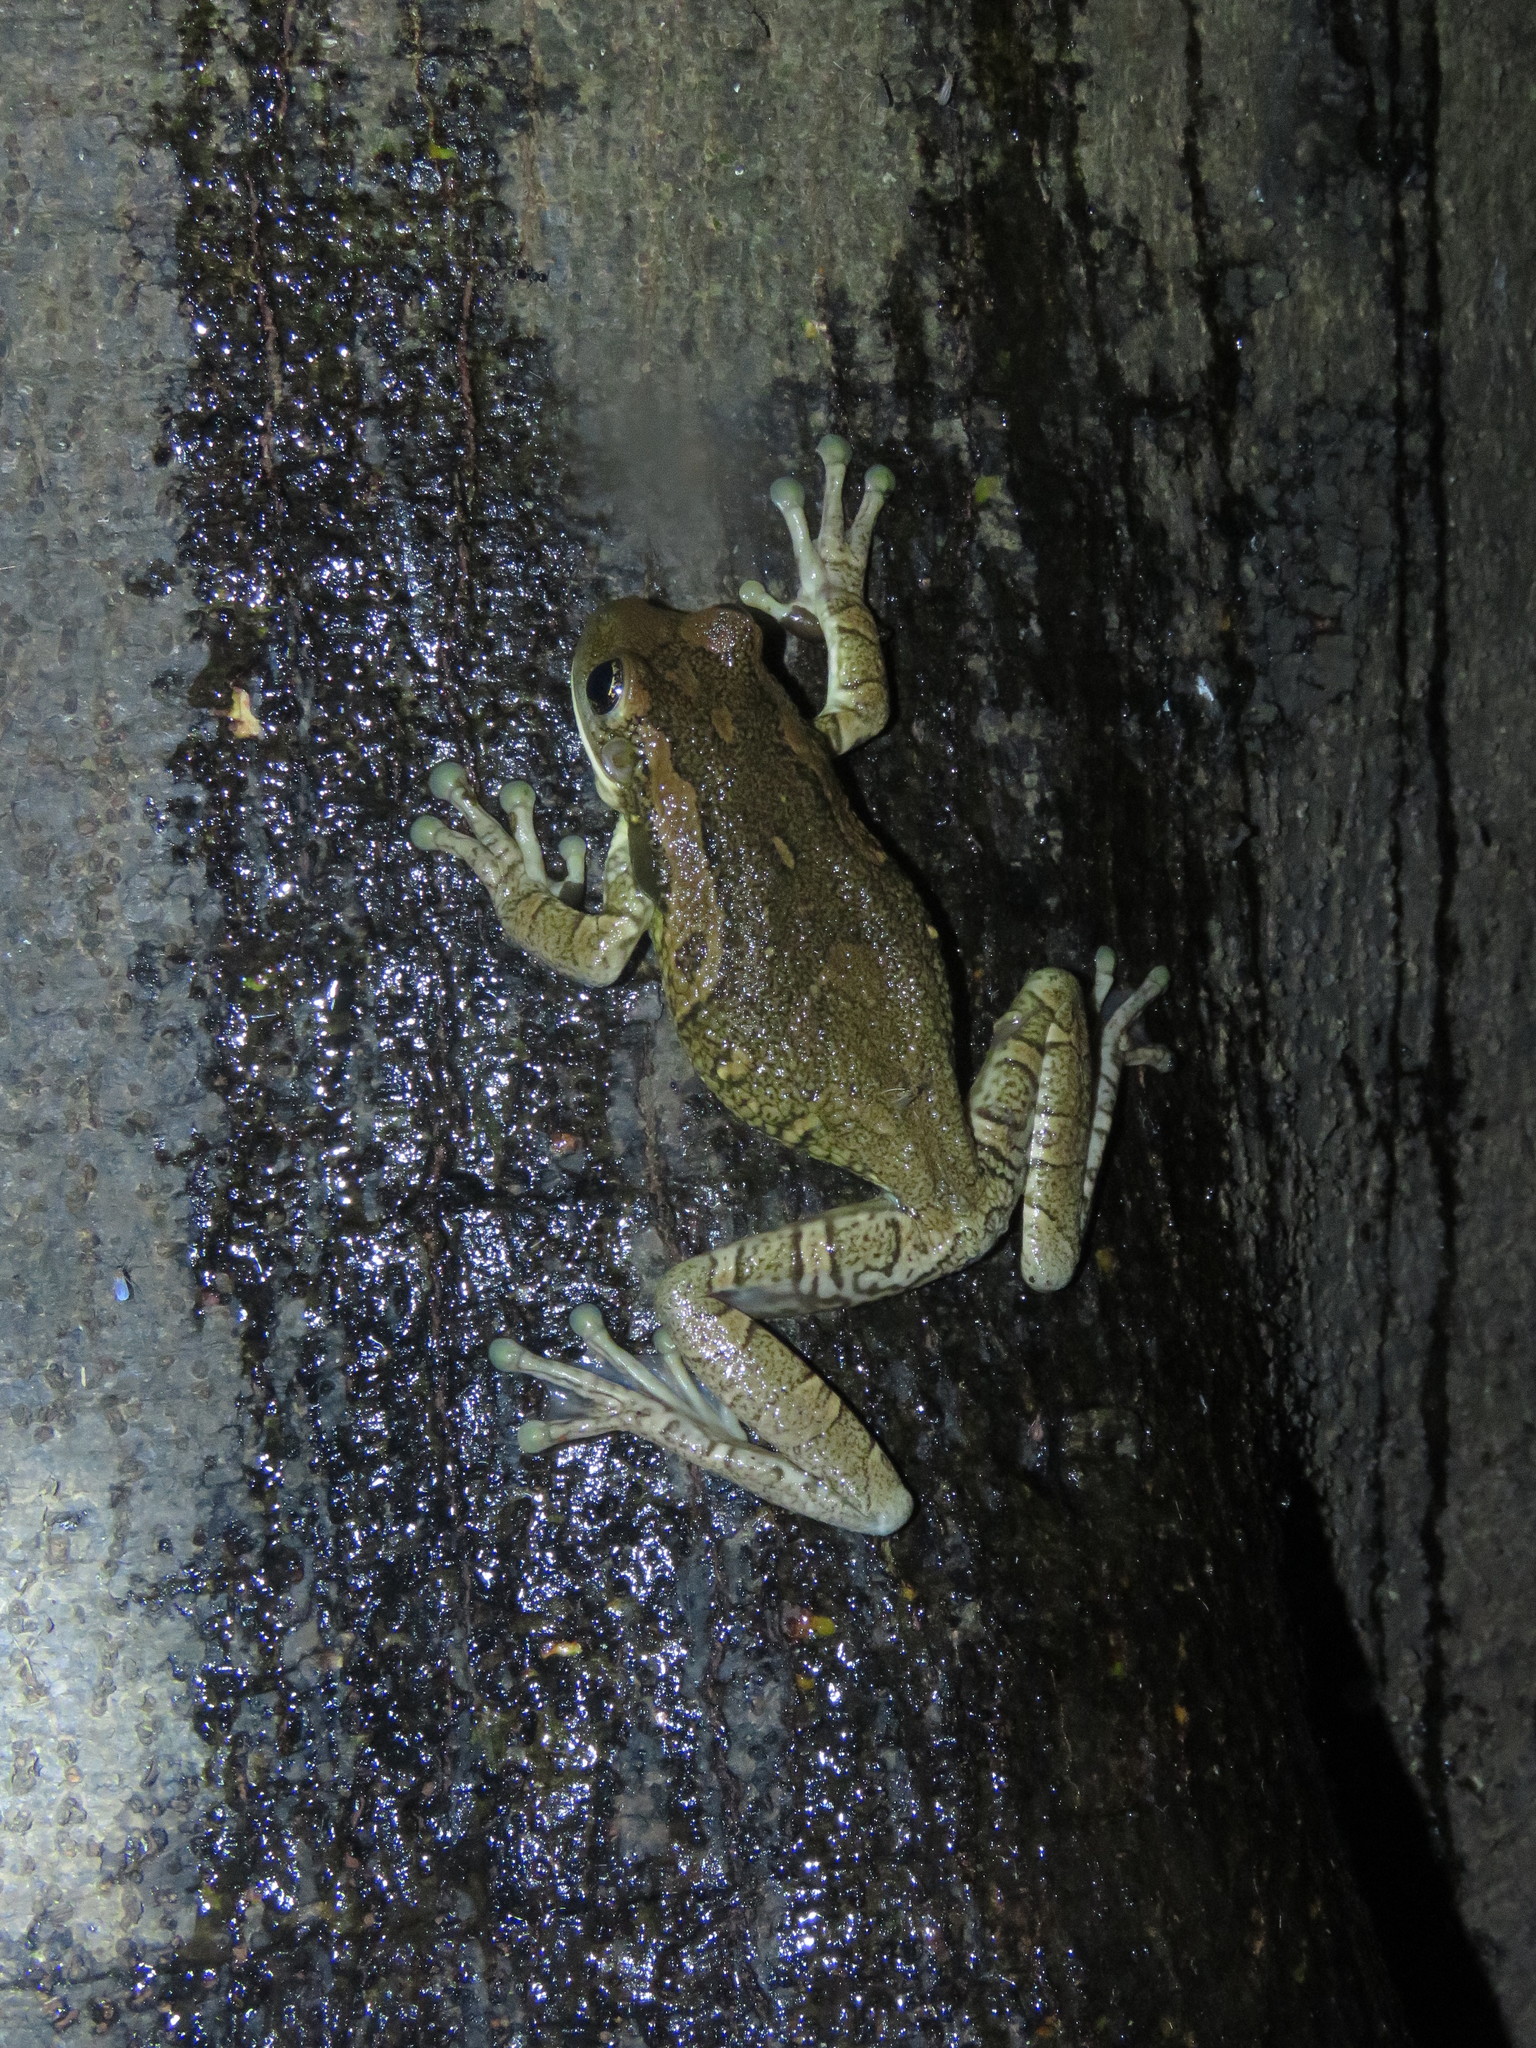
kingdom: Animalia
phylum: Chordata
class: Amphibia
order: Anura
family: Hylidae
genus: Trachycephalus
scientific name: Trachycephalus typhonius
